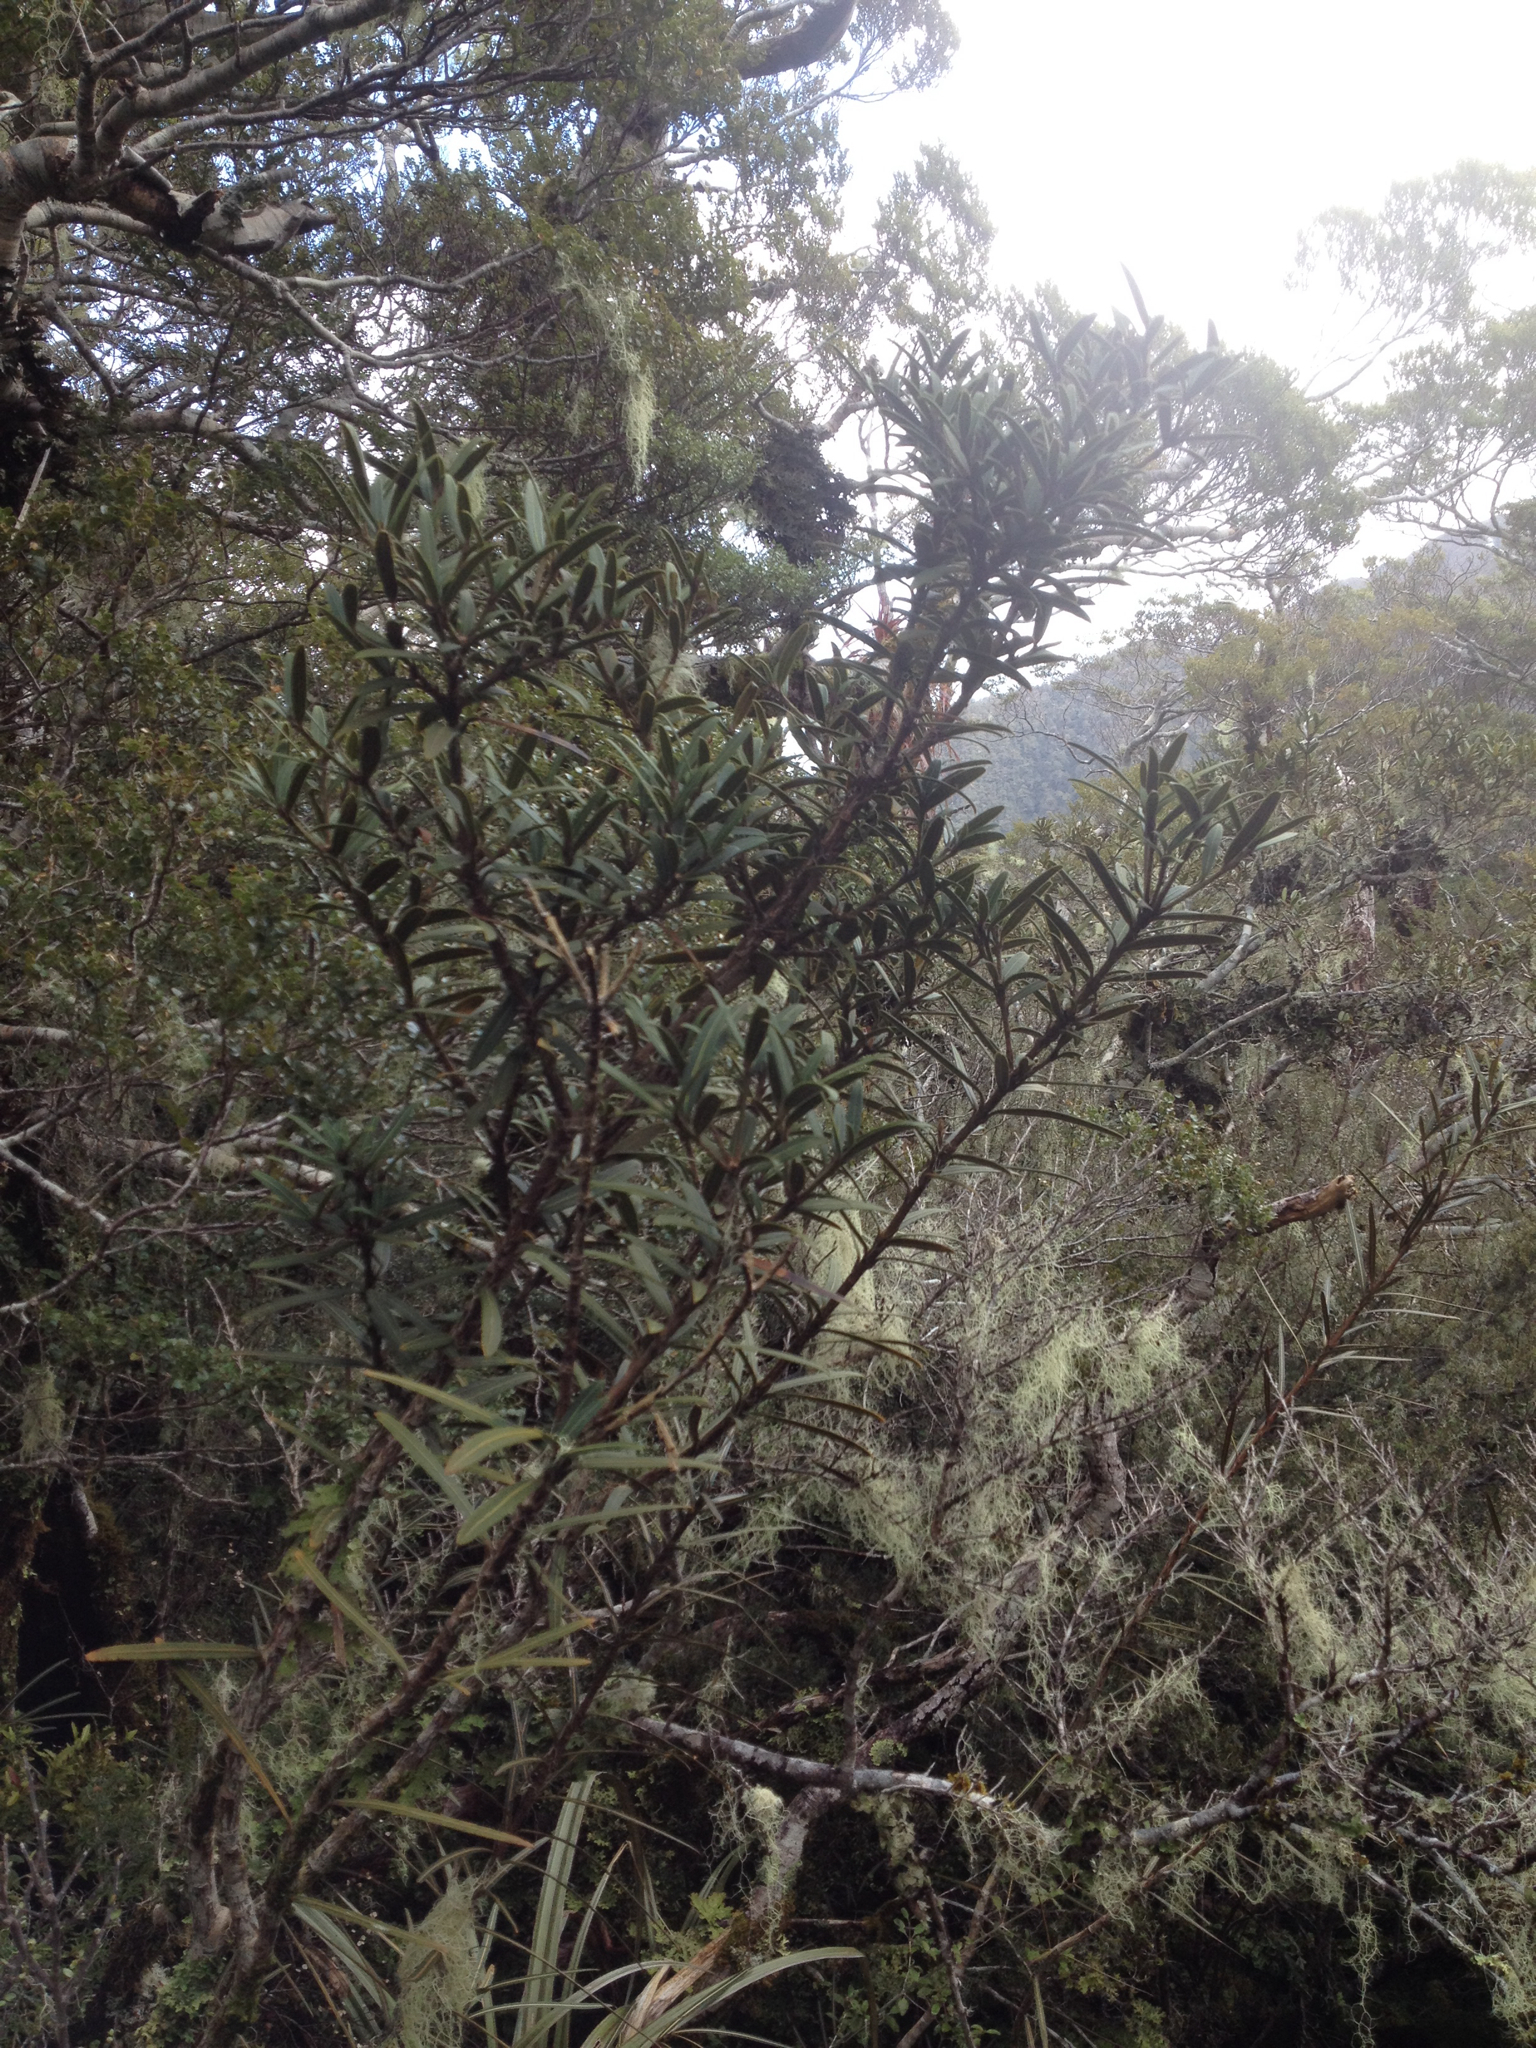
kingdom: Plantae
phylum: Tracheophyta
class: Magnoliopsida
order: Apiales
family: Araliaceae
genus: Pseudopanax
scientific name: Pseudopanax linearis
